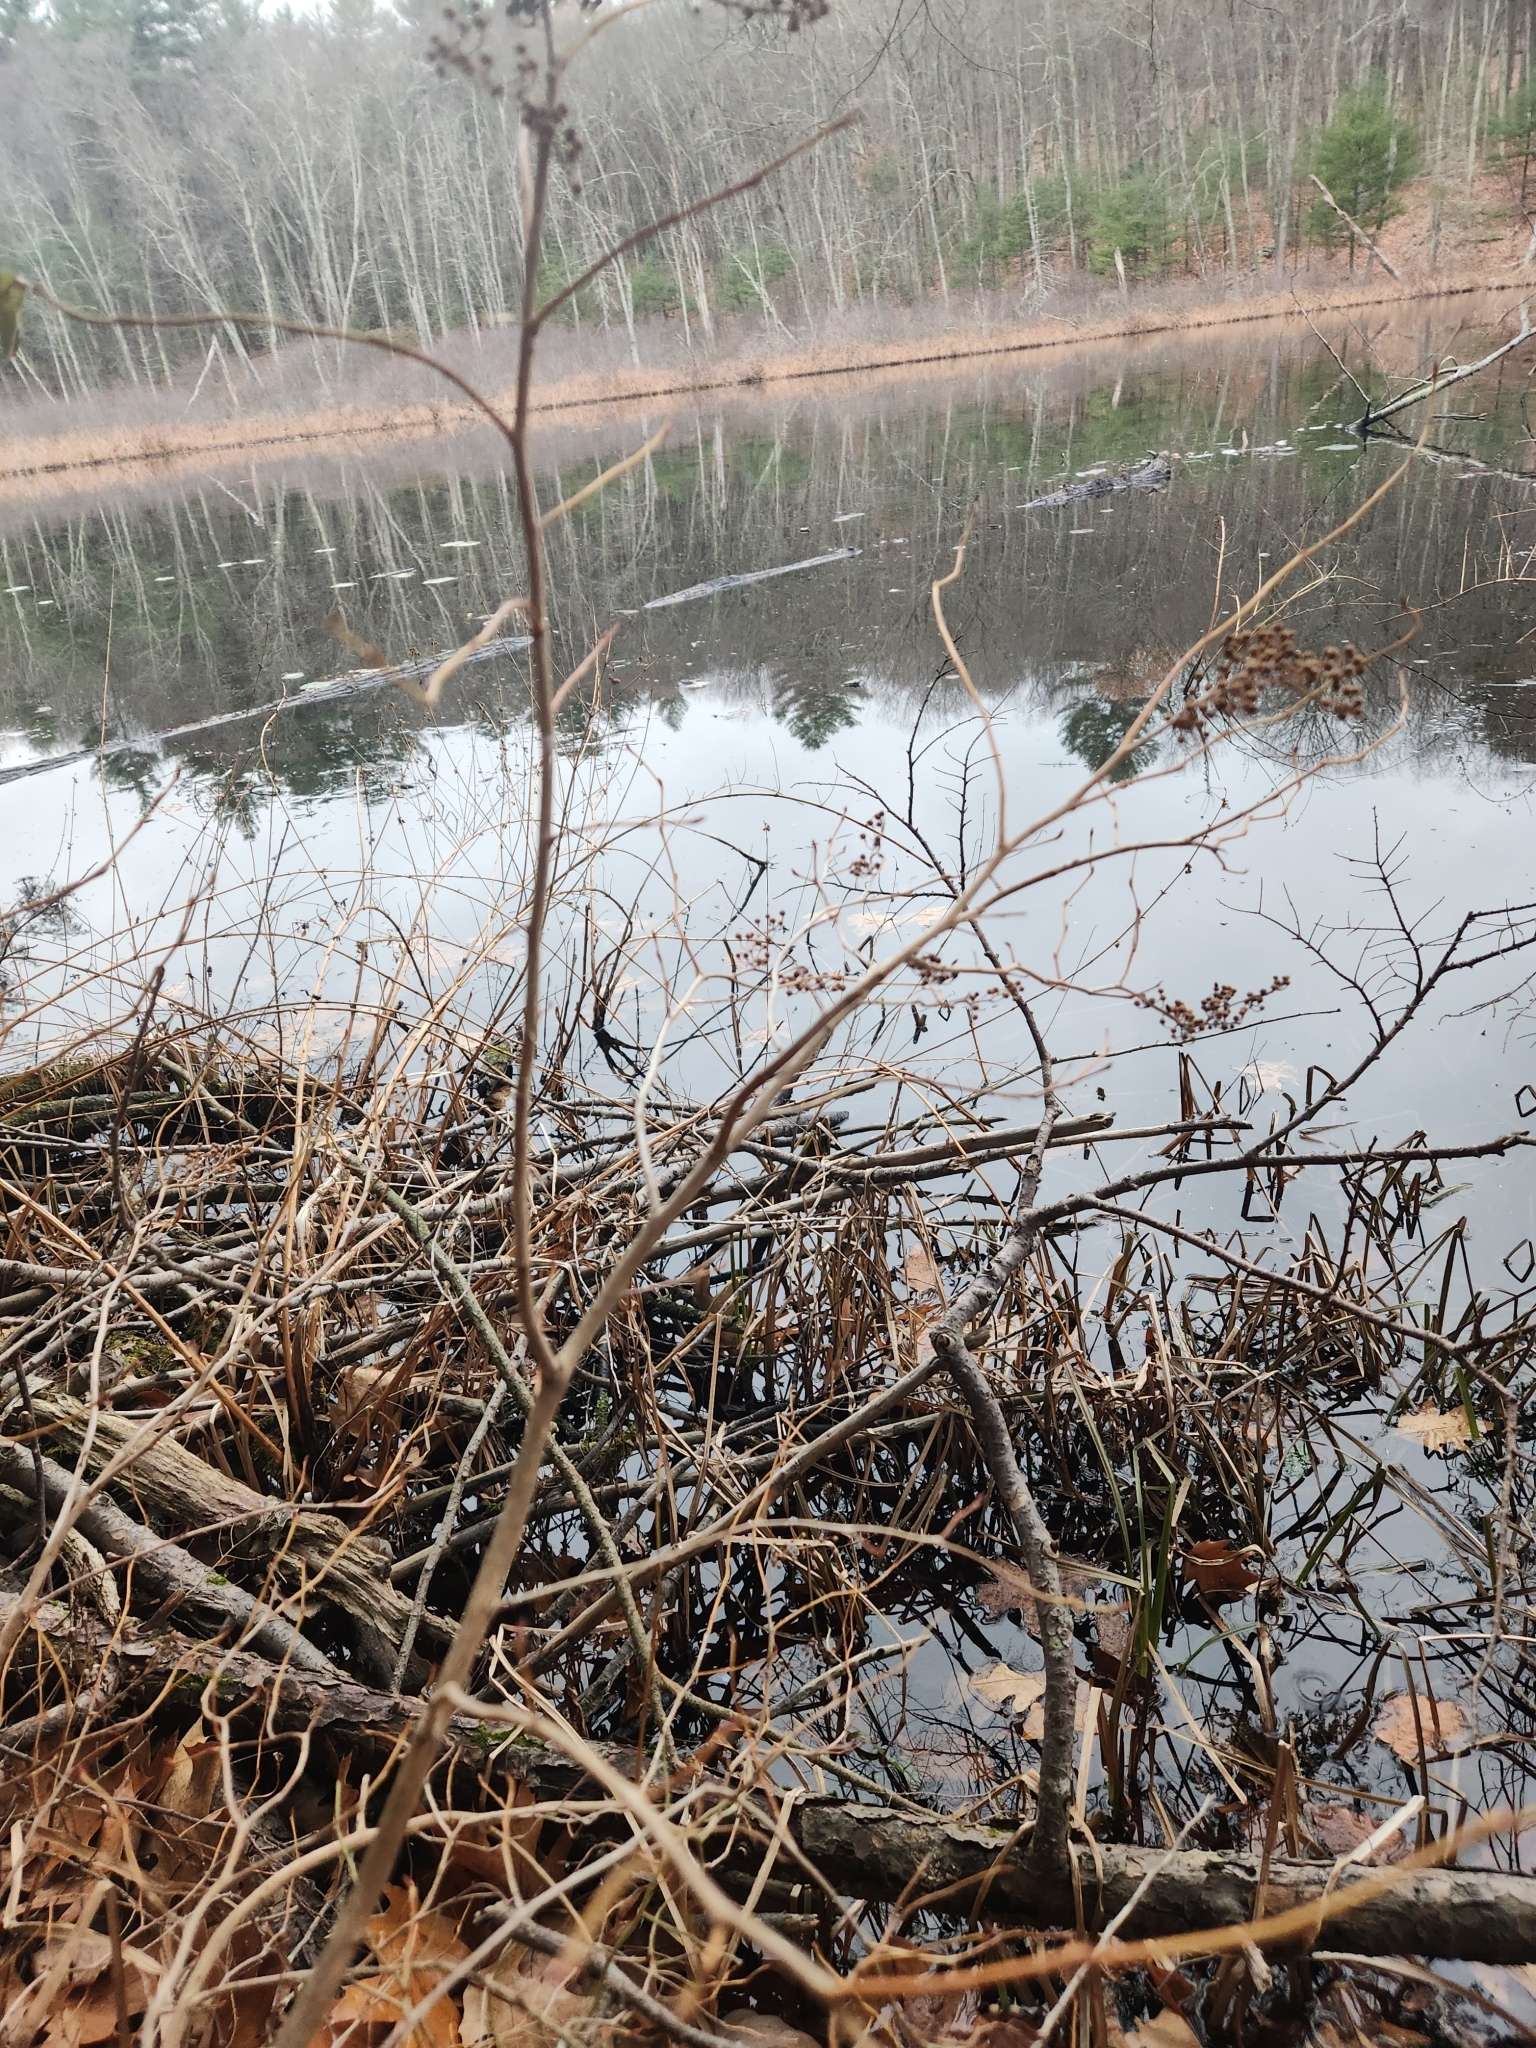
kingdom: Plantae
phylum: Tracheophyta
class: Magnoliopsida
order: Ericales
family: Ericaceae
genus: Lyonia
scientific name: Lyonia ligustrina
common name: Maleberry
